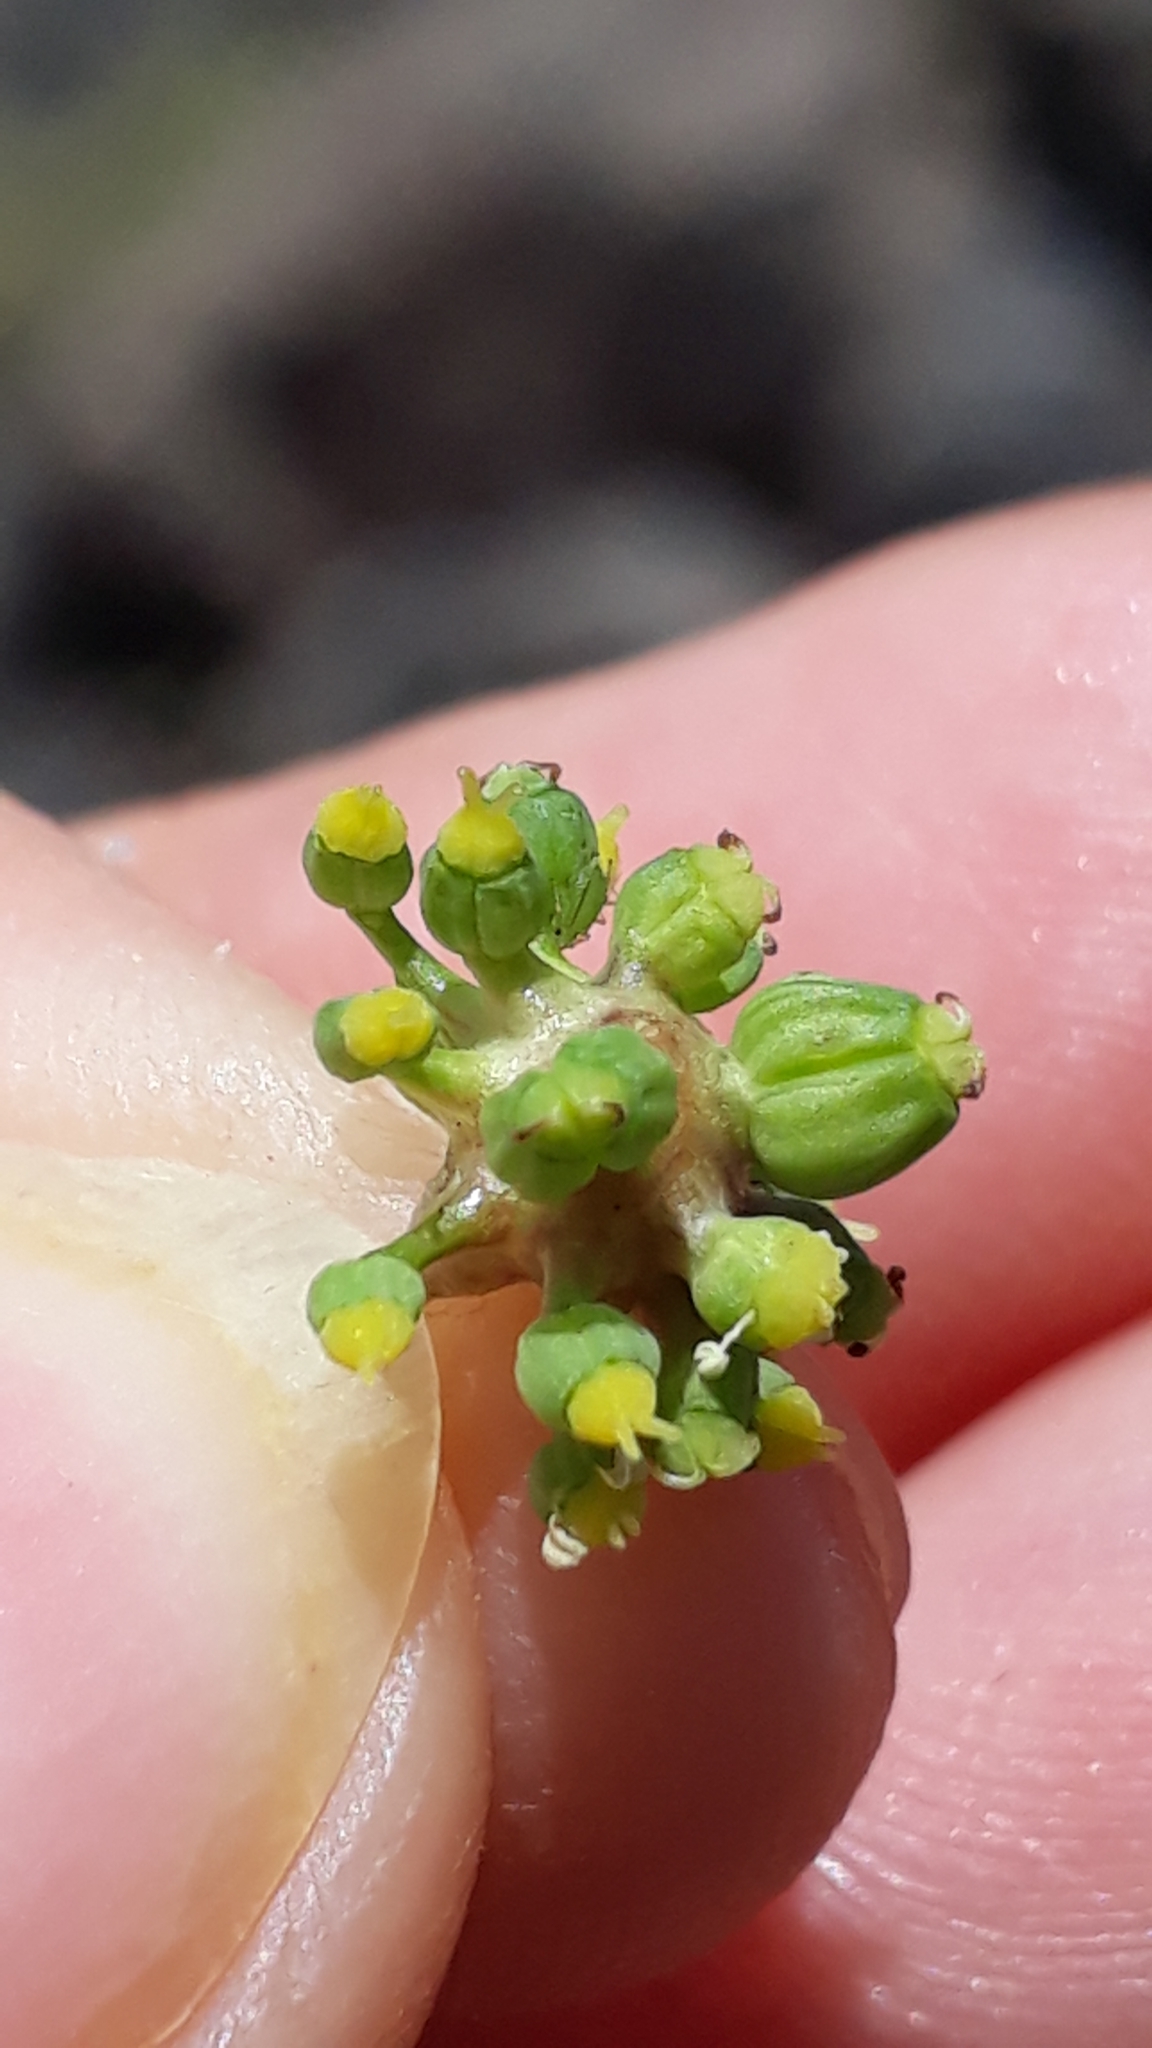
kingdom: Plantae
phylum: Tracheophyta
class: Magnoliopsida
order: Apiales
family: Apiaceae
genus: Rutheopsis
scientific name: Rutheopsis tortuosa
